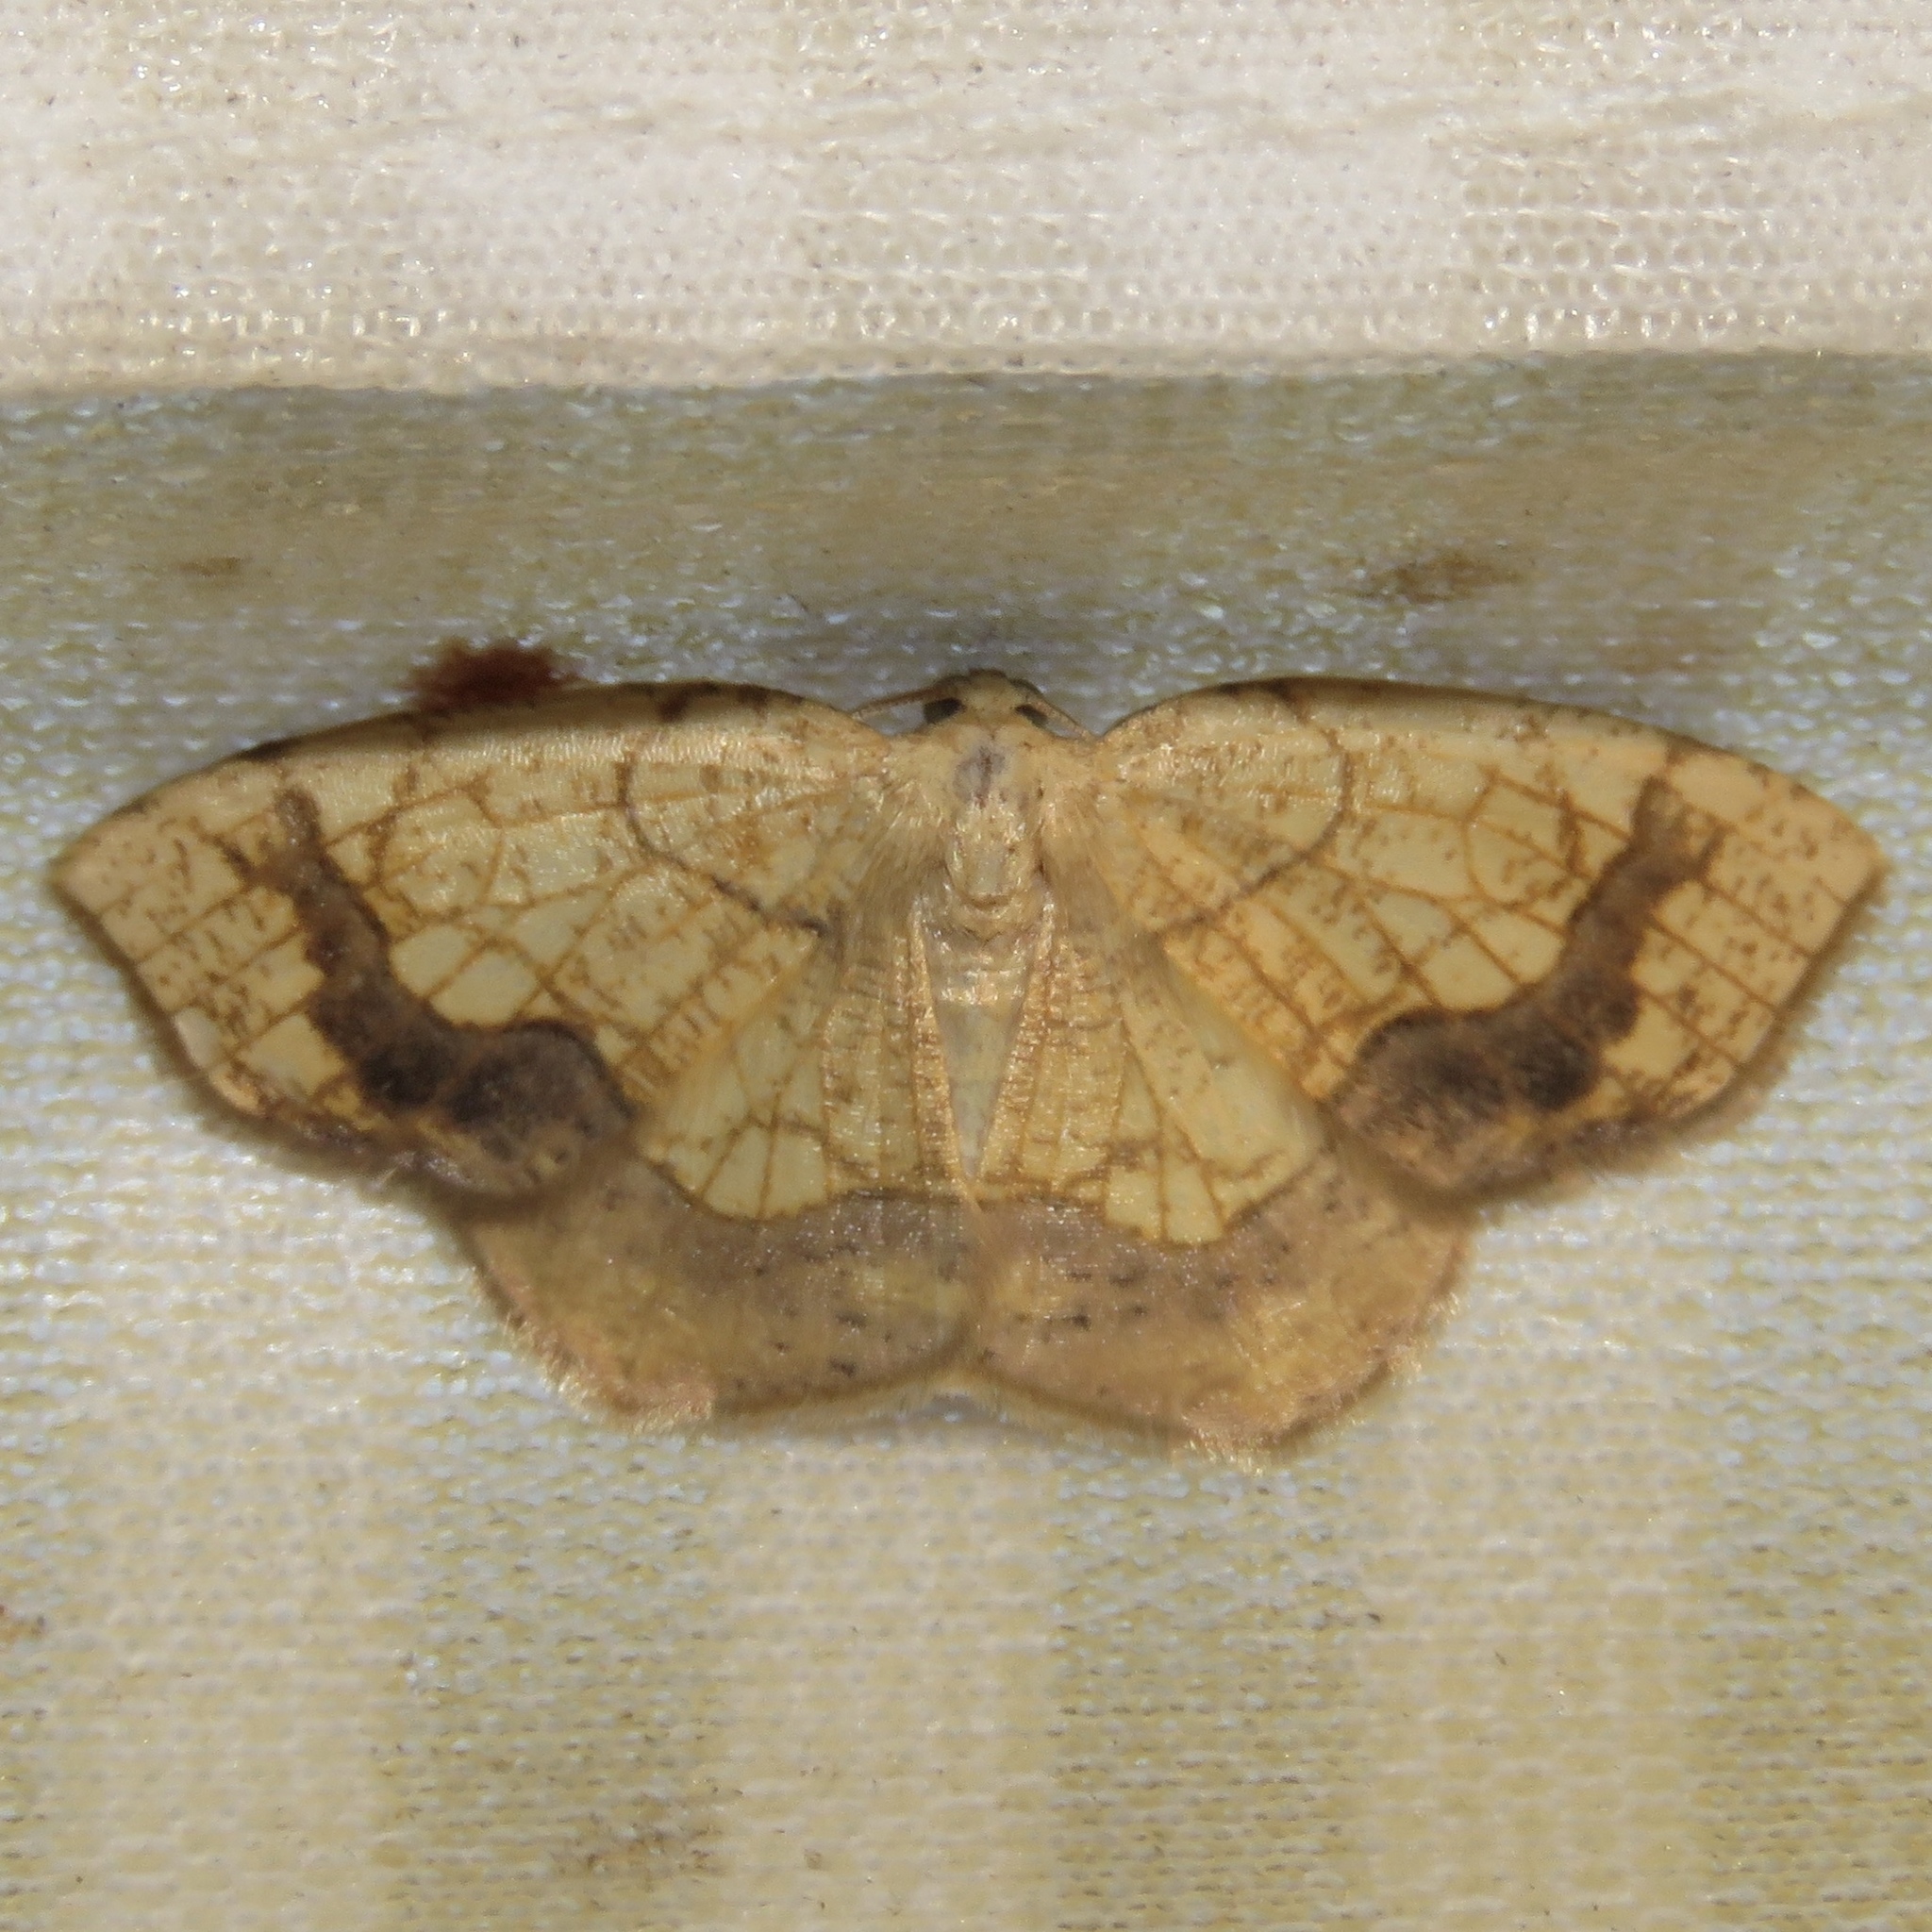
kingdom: Animalia
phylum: Arthropoda
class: Insecta
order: Lepidoptera
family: Geometridae
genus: Nematocampa
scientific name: Nematocampa resistaria
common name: Horned spanworm moth
